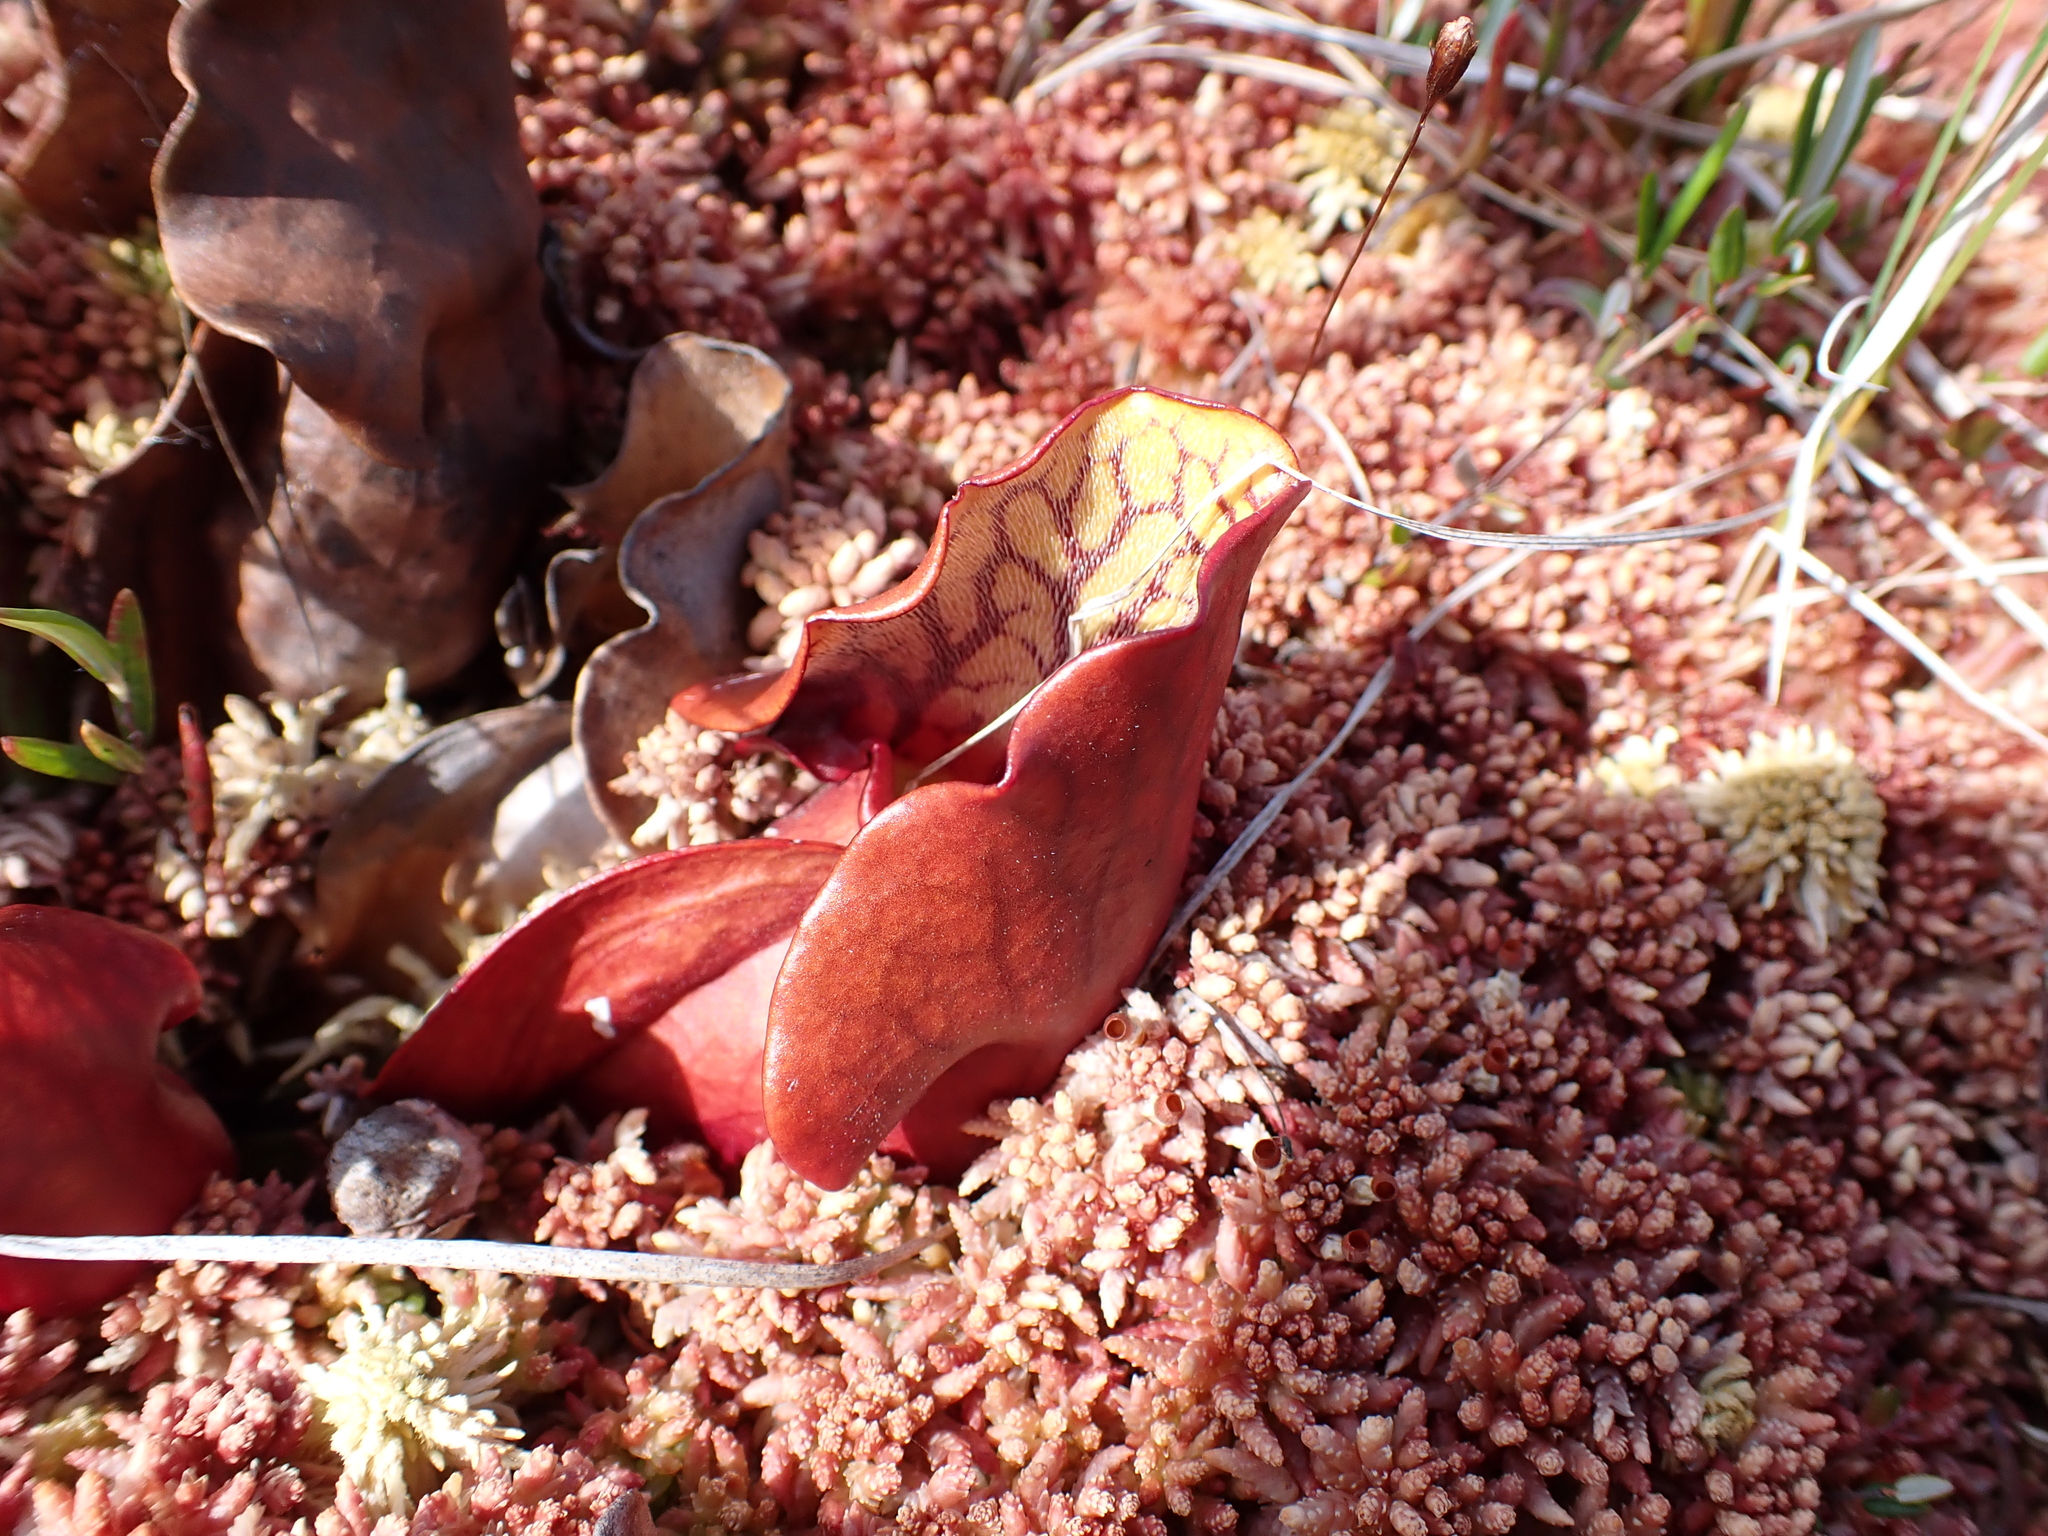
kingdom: Plantae
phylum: Tracheophyta
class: Magnoliopsida
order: Ericales
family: Sarraceniaceae
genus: Sarracenia
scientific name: Sarracenia purpurea
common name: Pitcherplant
